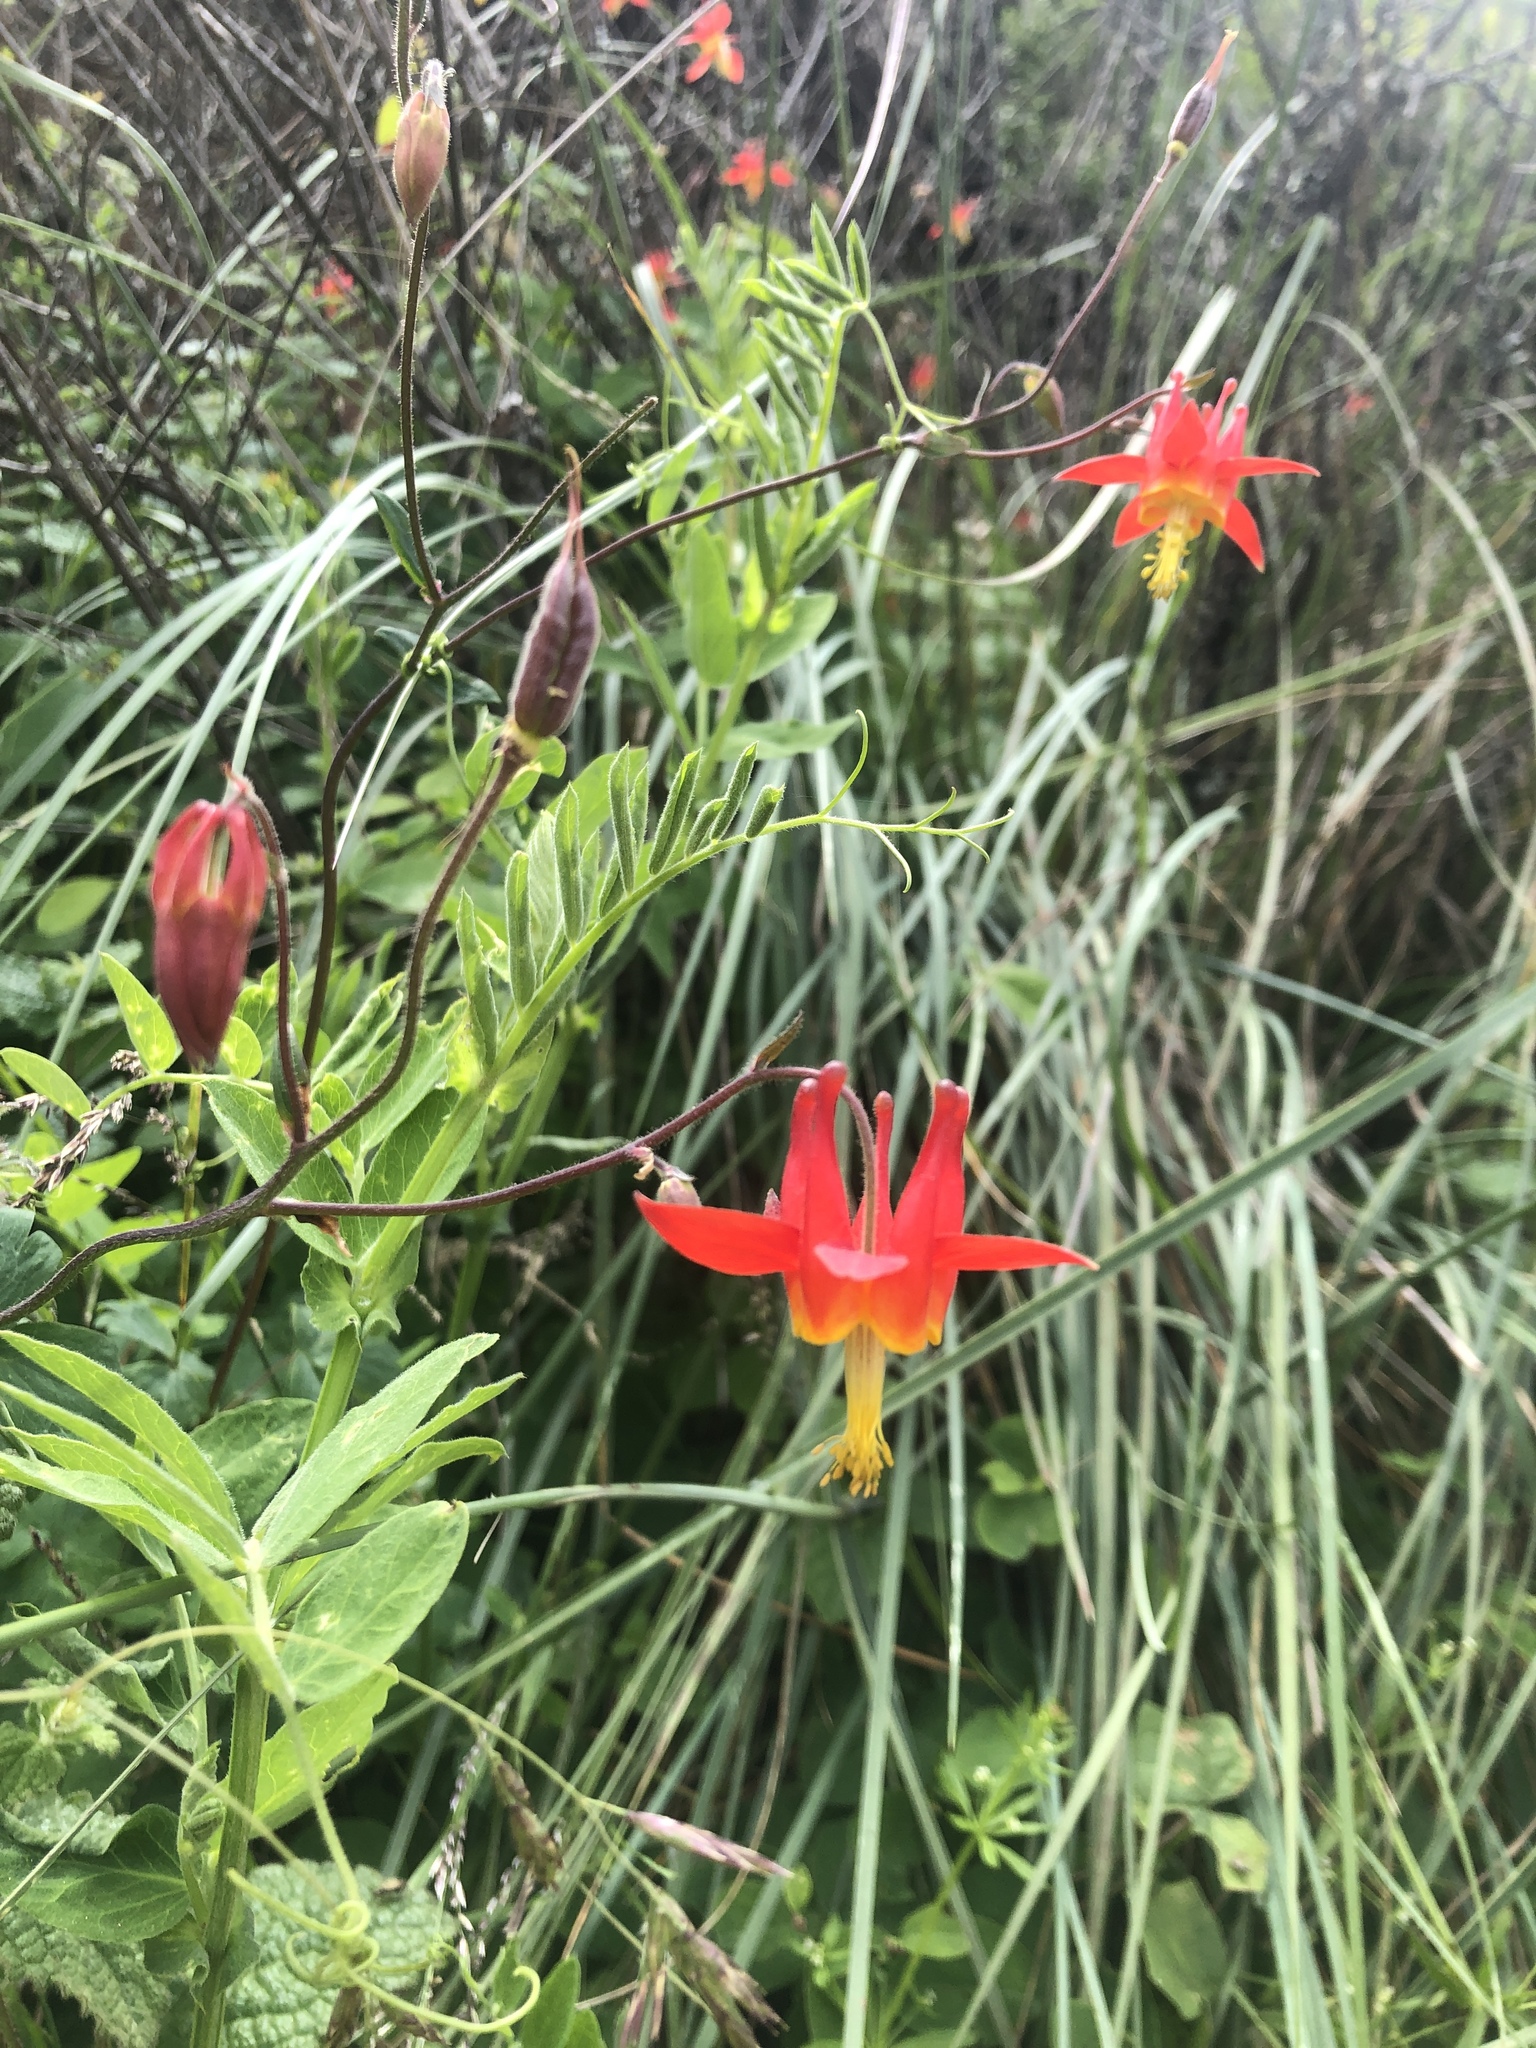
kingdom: Plantae
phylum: Tracheophyta
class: Magnoliopsida
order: Ranunculales
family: Ranunculaceae
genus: Aquilegia
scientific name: Aquilegia formosa
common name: Sitka columbine
